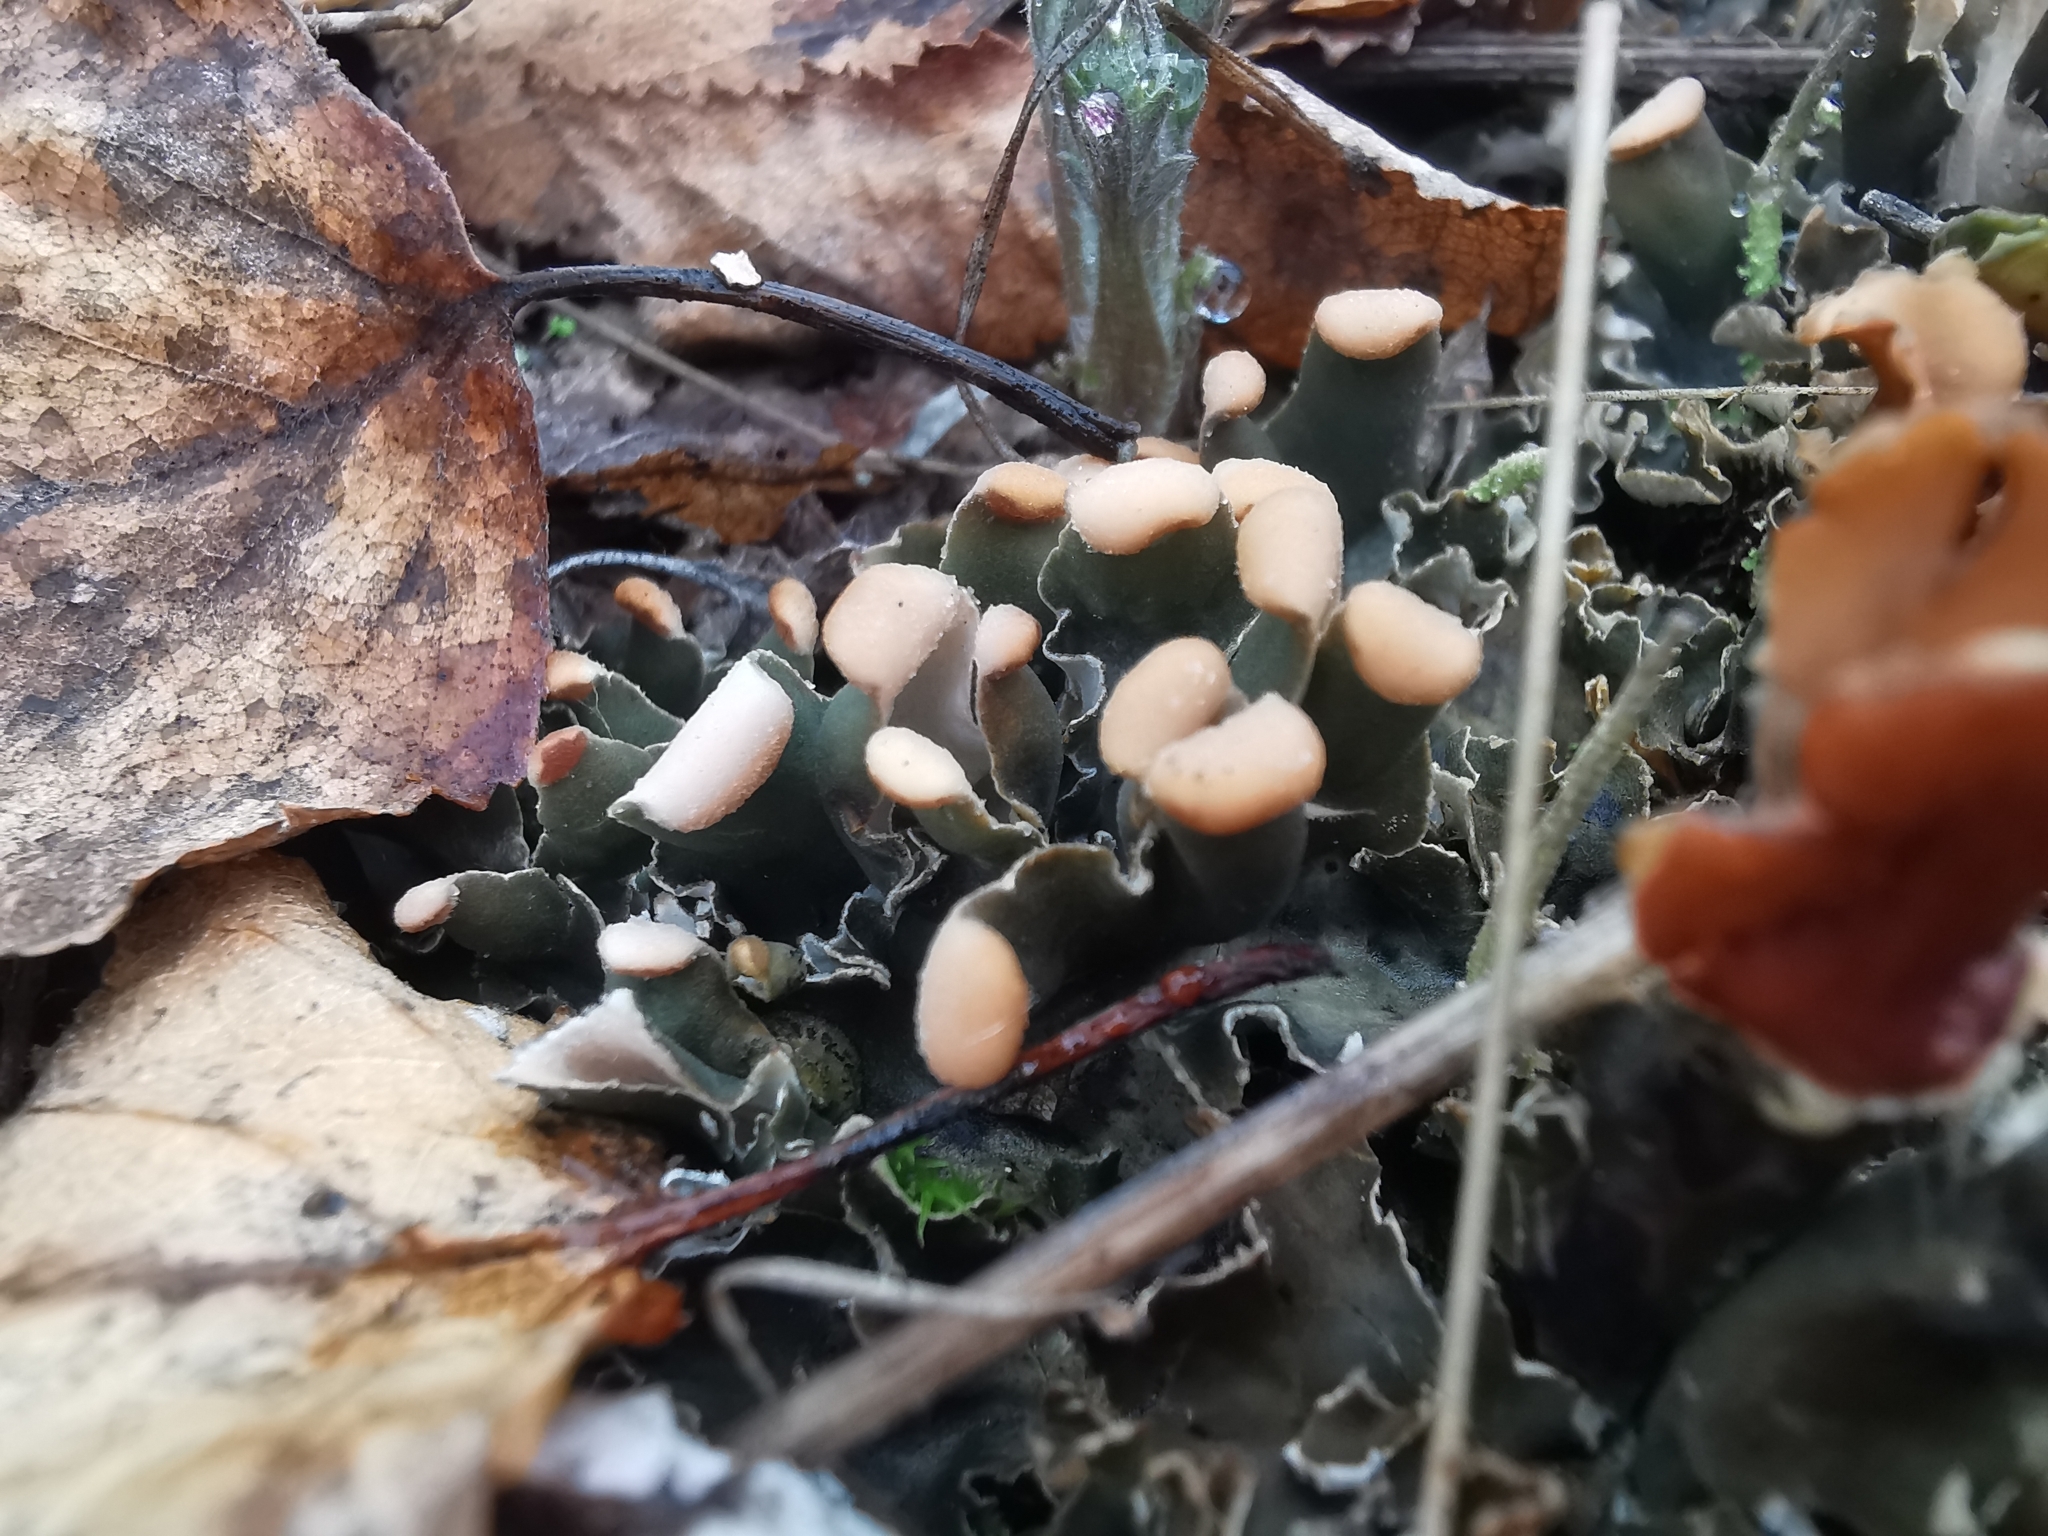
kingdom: Fungi
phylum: Ascomycota
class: Lecanoromycetes
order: Peltigerales
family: Peltigeraceae
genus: Peltigera
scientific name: Peltigera membranacea
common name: Membranous pelt lichen
